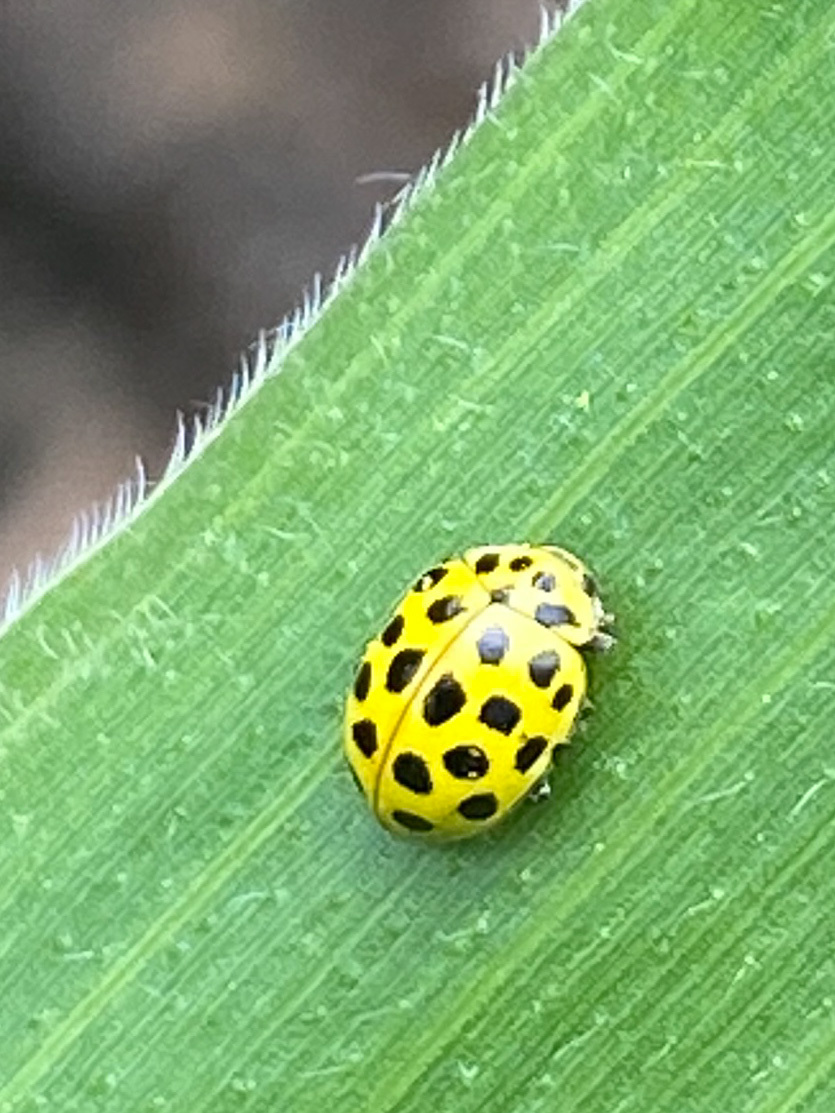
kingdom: Animalia
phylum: Arthropoda
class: Insecta
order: Coleoptera
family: Coccinellidae
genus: Psyllobora
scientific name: Psyllobora vigintiduopunctata
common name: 22-spot ladybird
